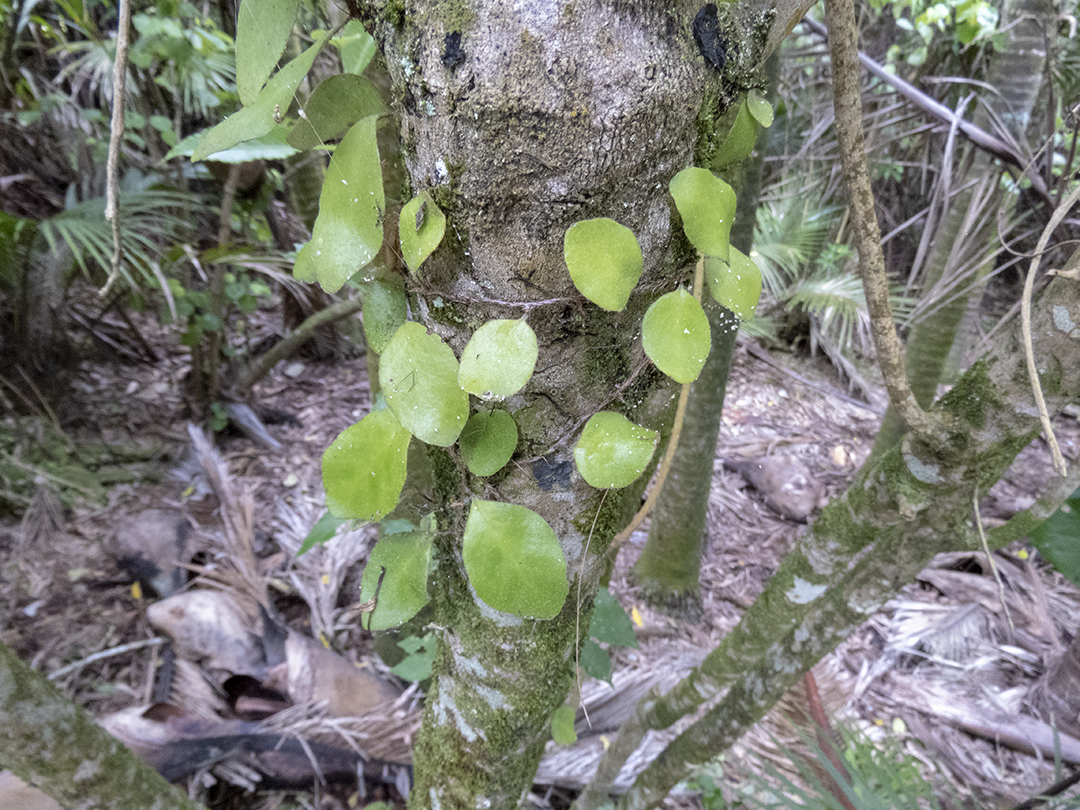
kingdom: Plantae
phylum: Tracheophyta
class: Polypodiopsida
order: Polypodiales
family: Polypodiaceae
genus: Pyrrosia
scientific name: Pyrrosia eleagnifolia
